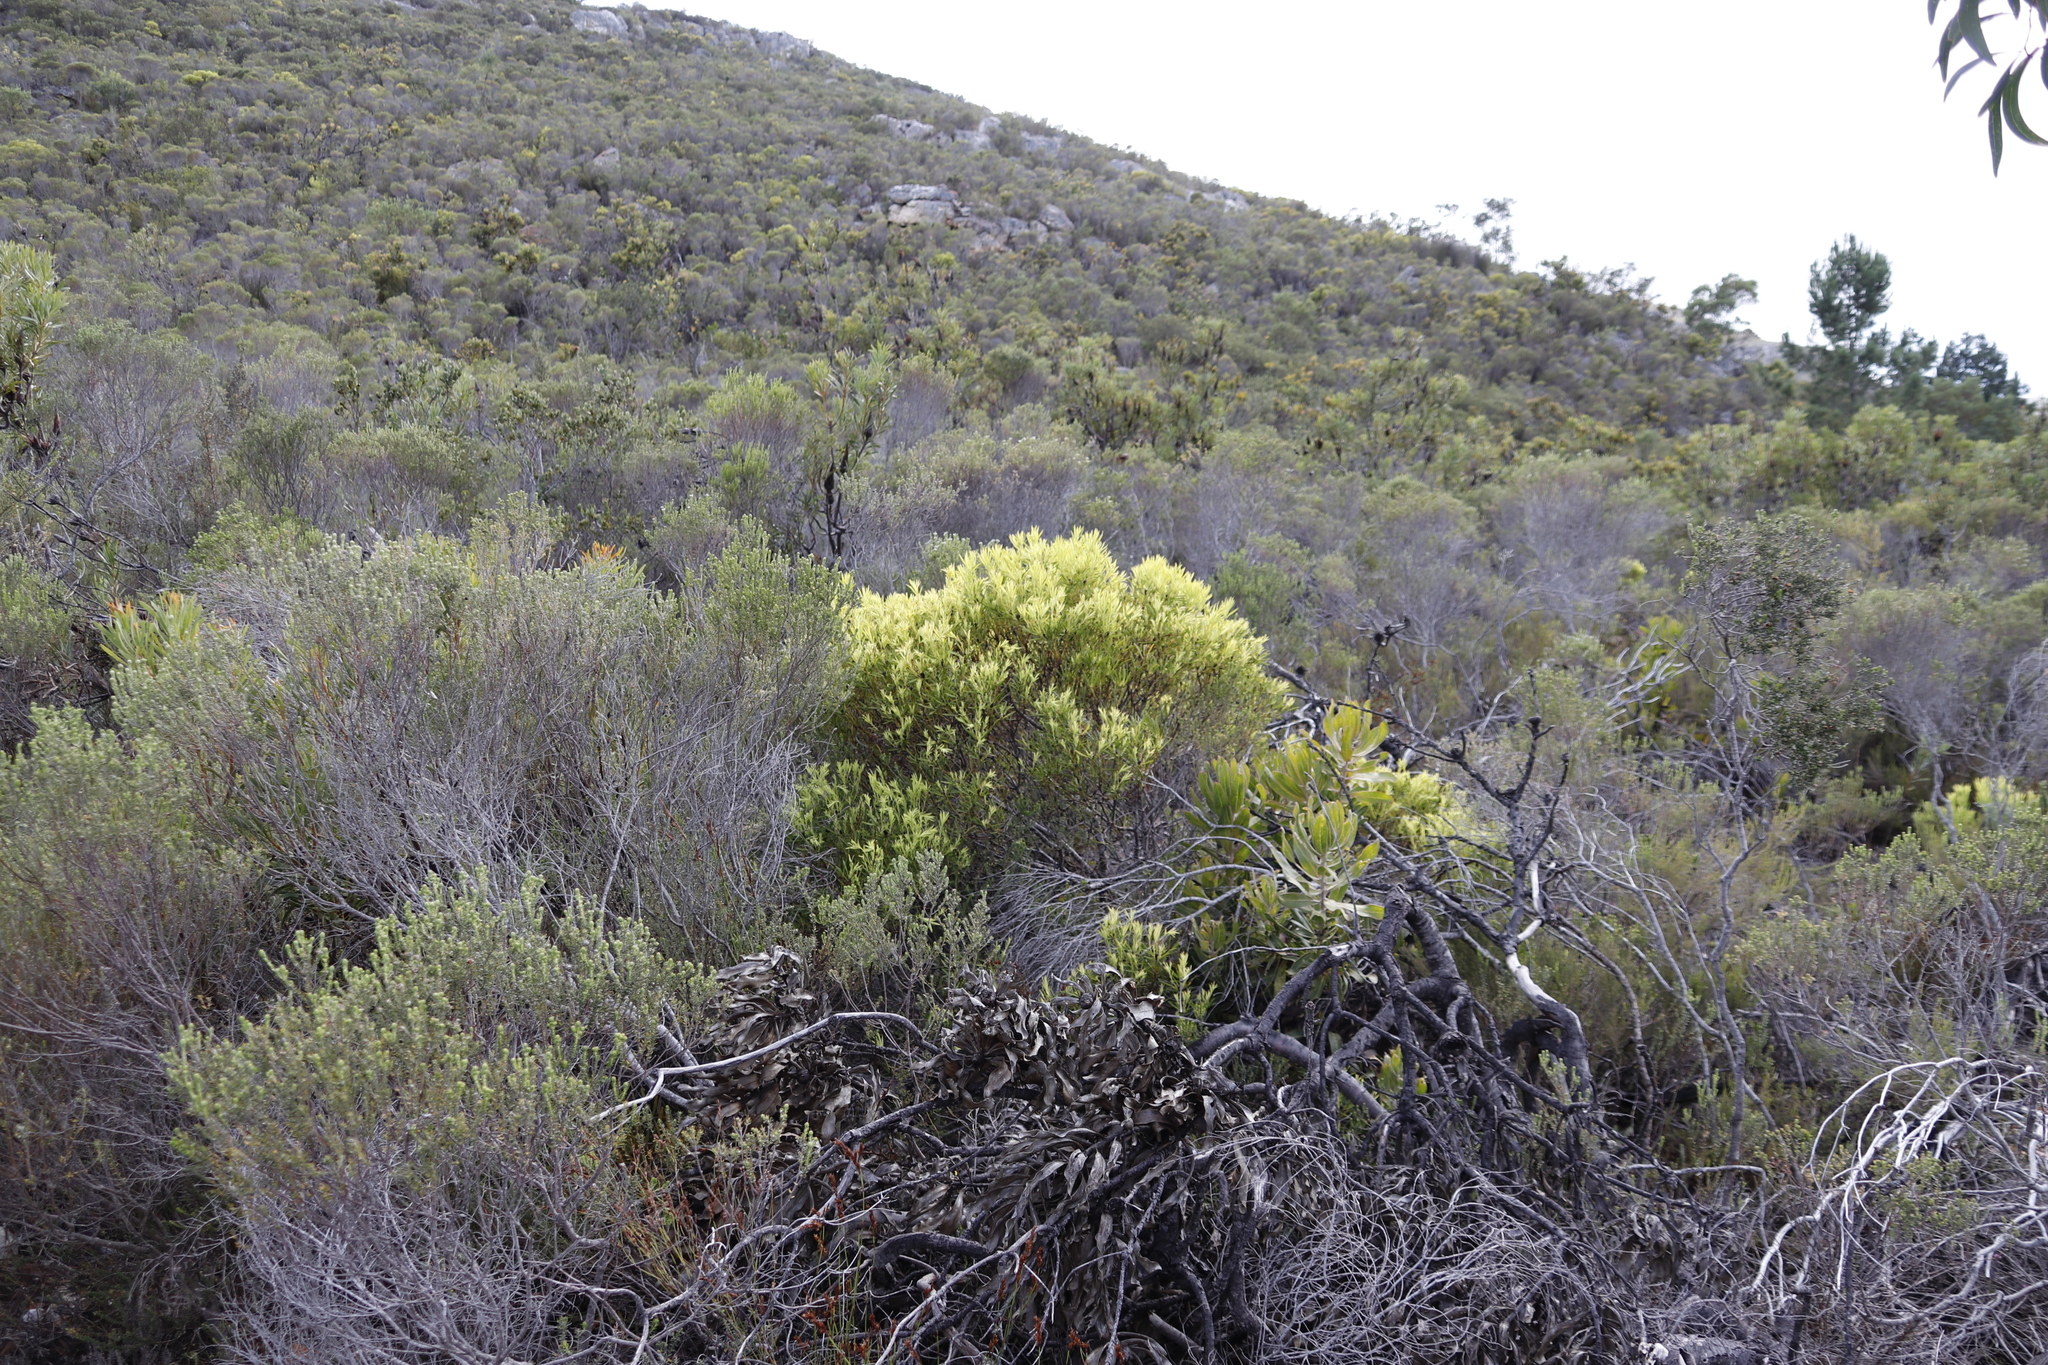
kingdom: Plantae
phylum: Tracheophyta
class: Magnoliopsida
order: Proteales
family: Proteaceae
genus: Leucadendron
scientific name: Leucadendron salignum
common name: Common sunshine conebush
